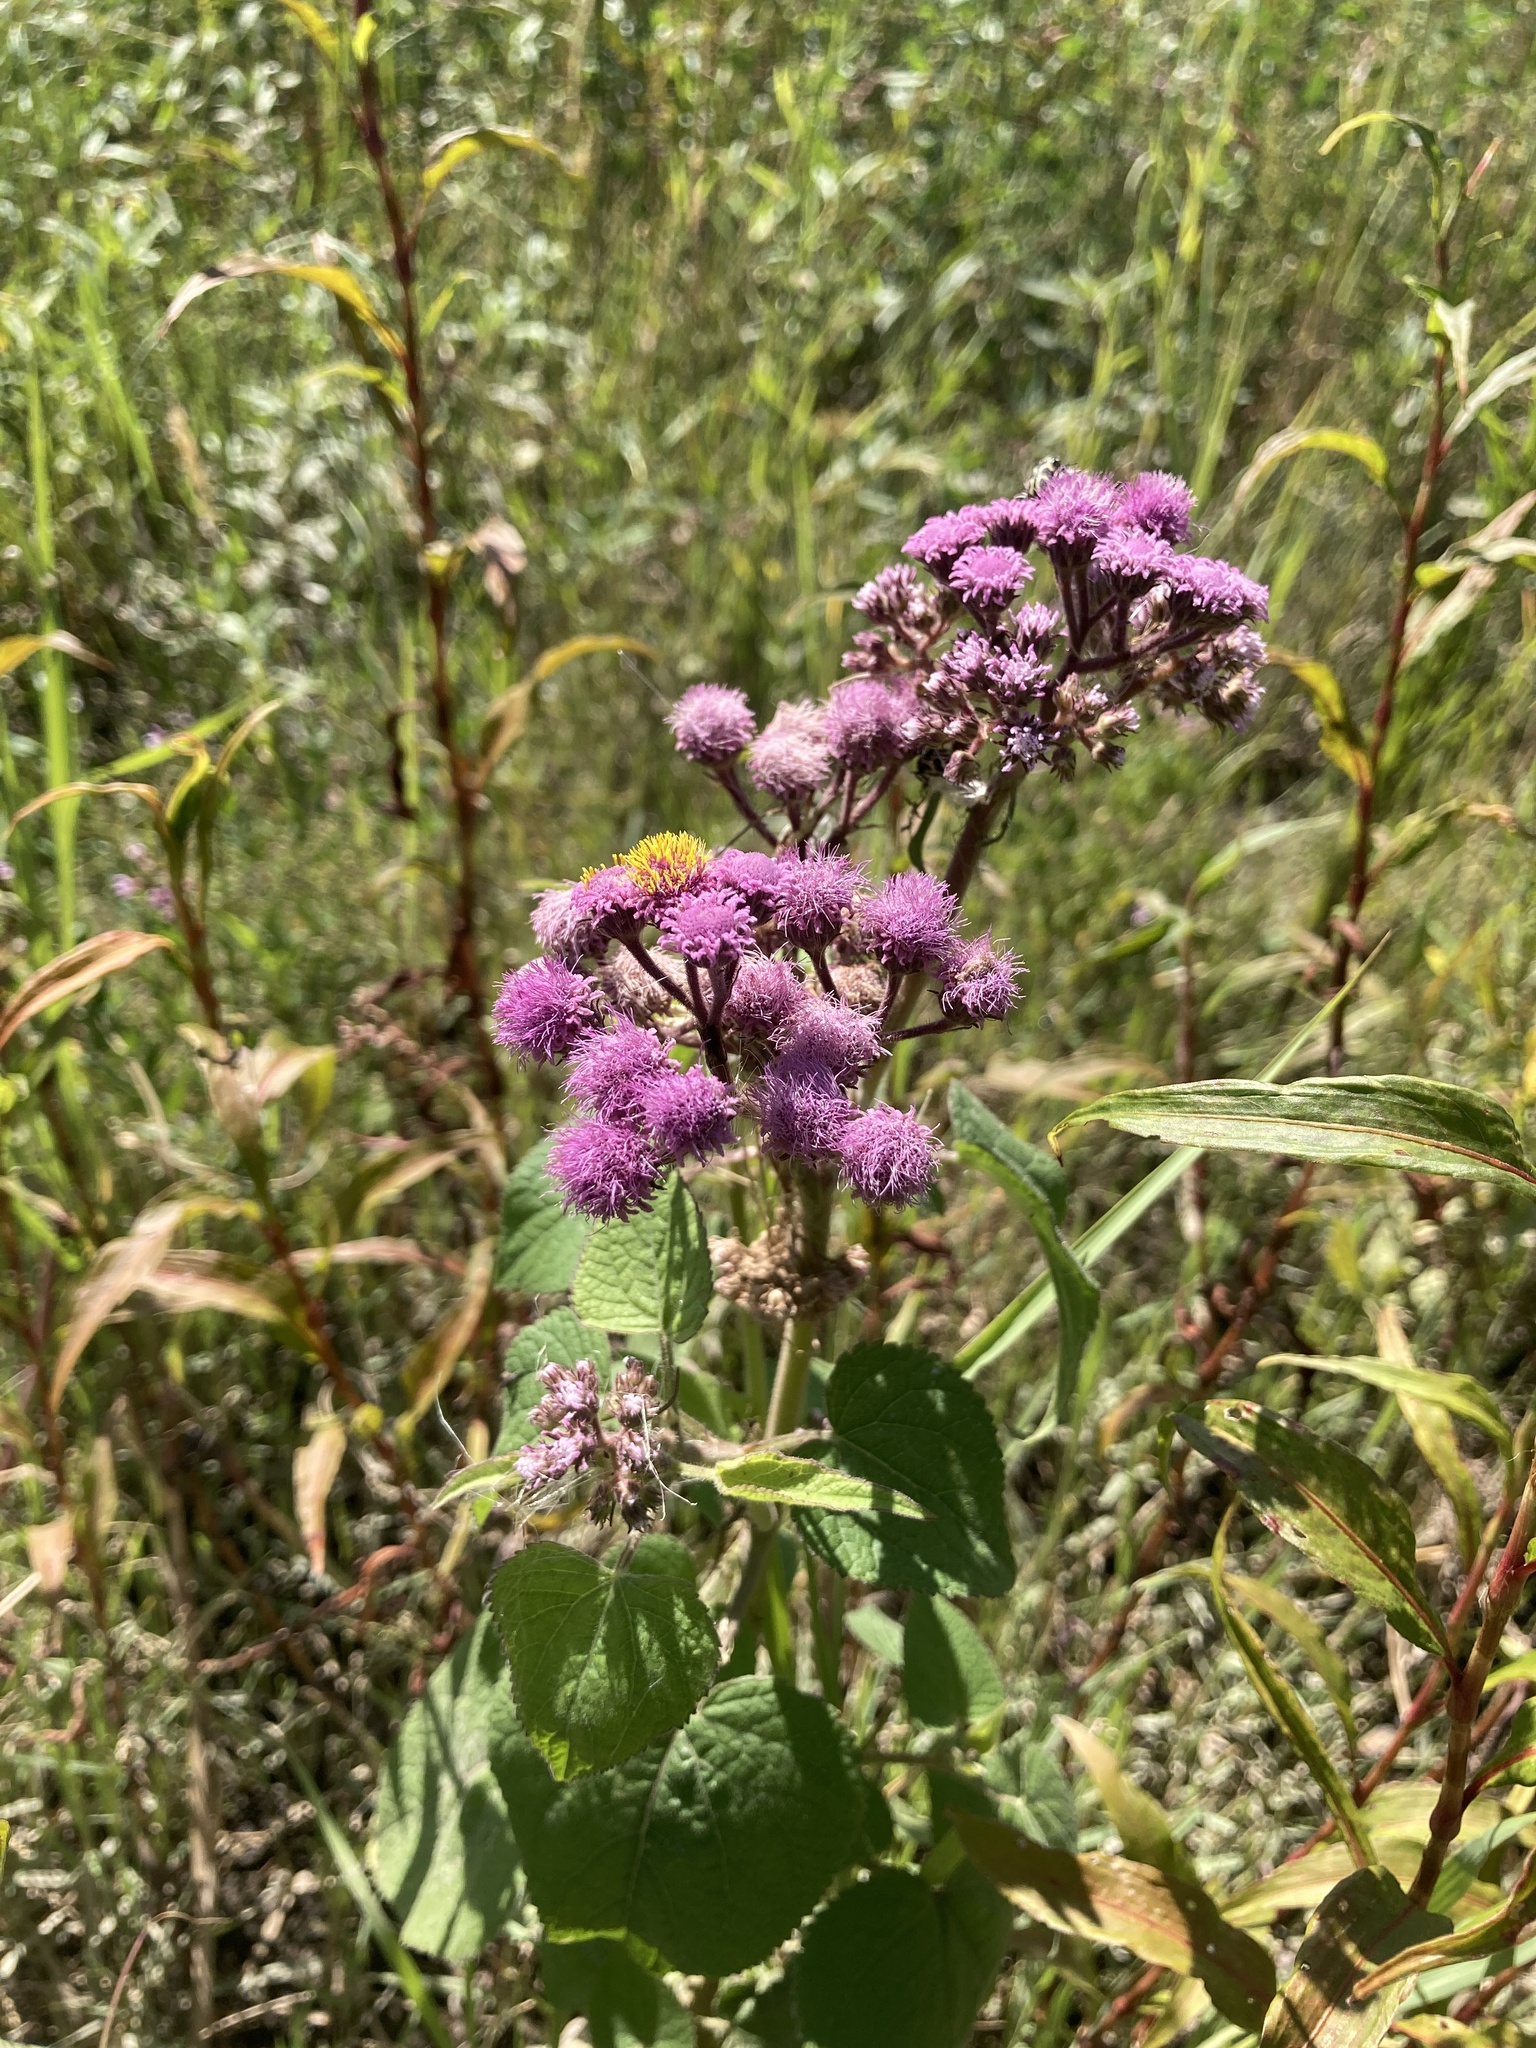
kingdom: Plantae
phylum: Tracheophyta
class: Magnoliopsida
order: Asterales
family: Asteraceae
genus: Urolepis
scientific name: Urolepis hecatantha
